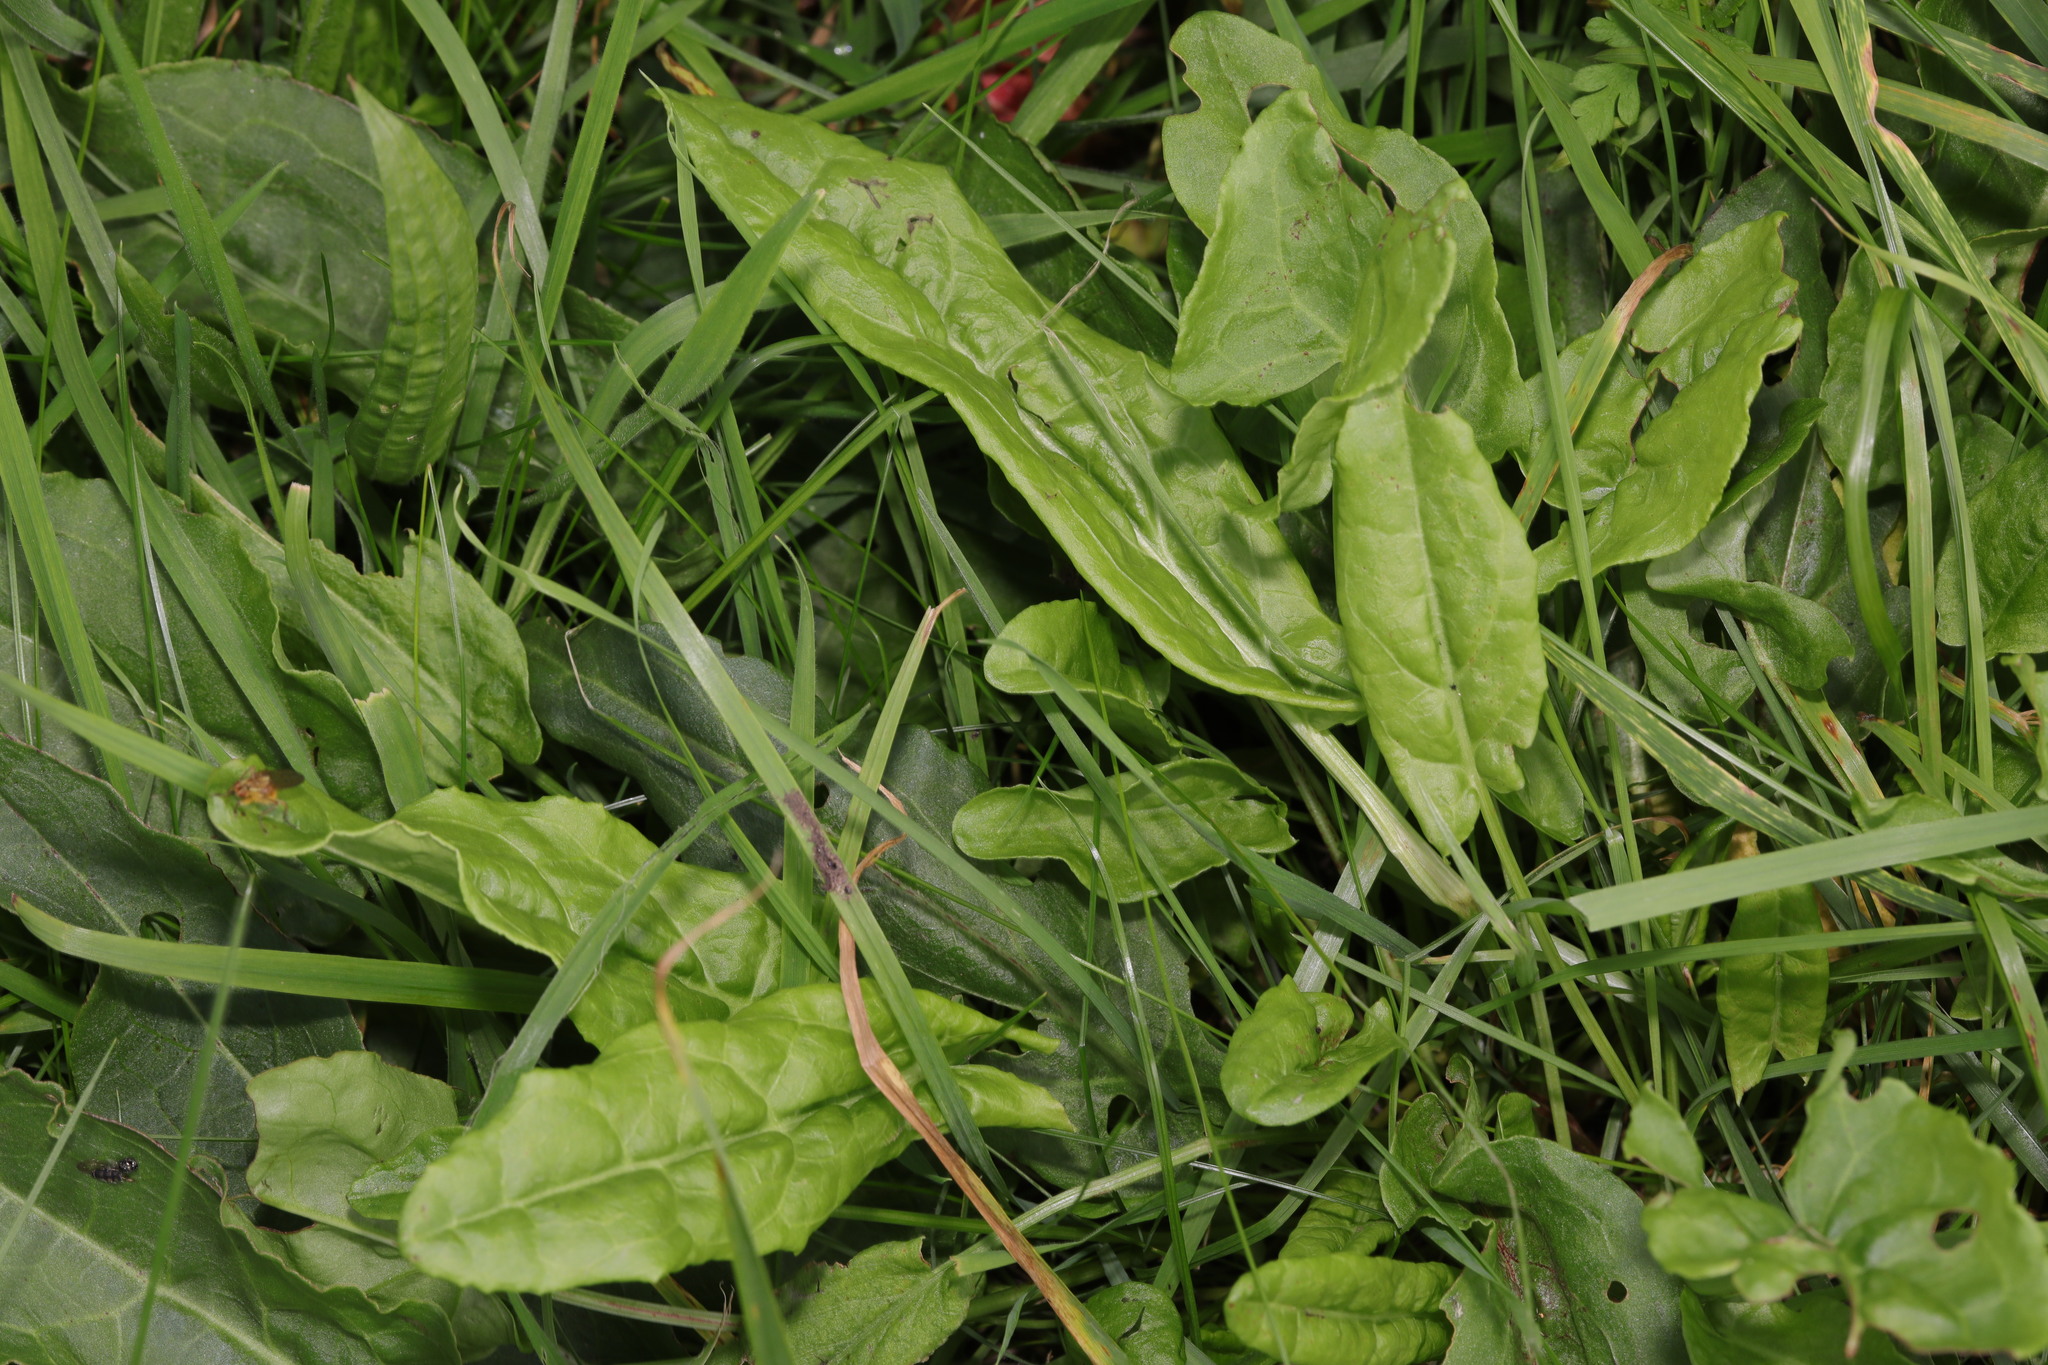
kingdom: Plantae
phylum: Tracheophyta
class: Magnoliopsida
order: Caryophyllales
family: Polygonaceae
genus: Rumex
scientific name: Rumex acetosa
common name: Garden sorrel
